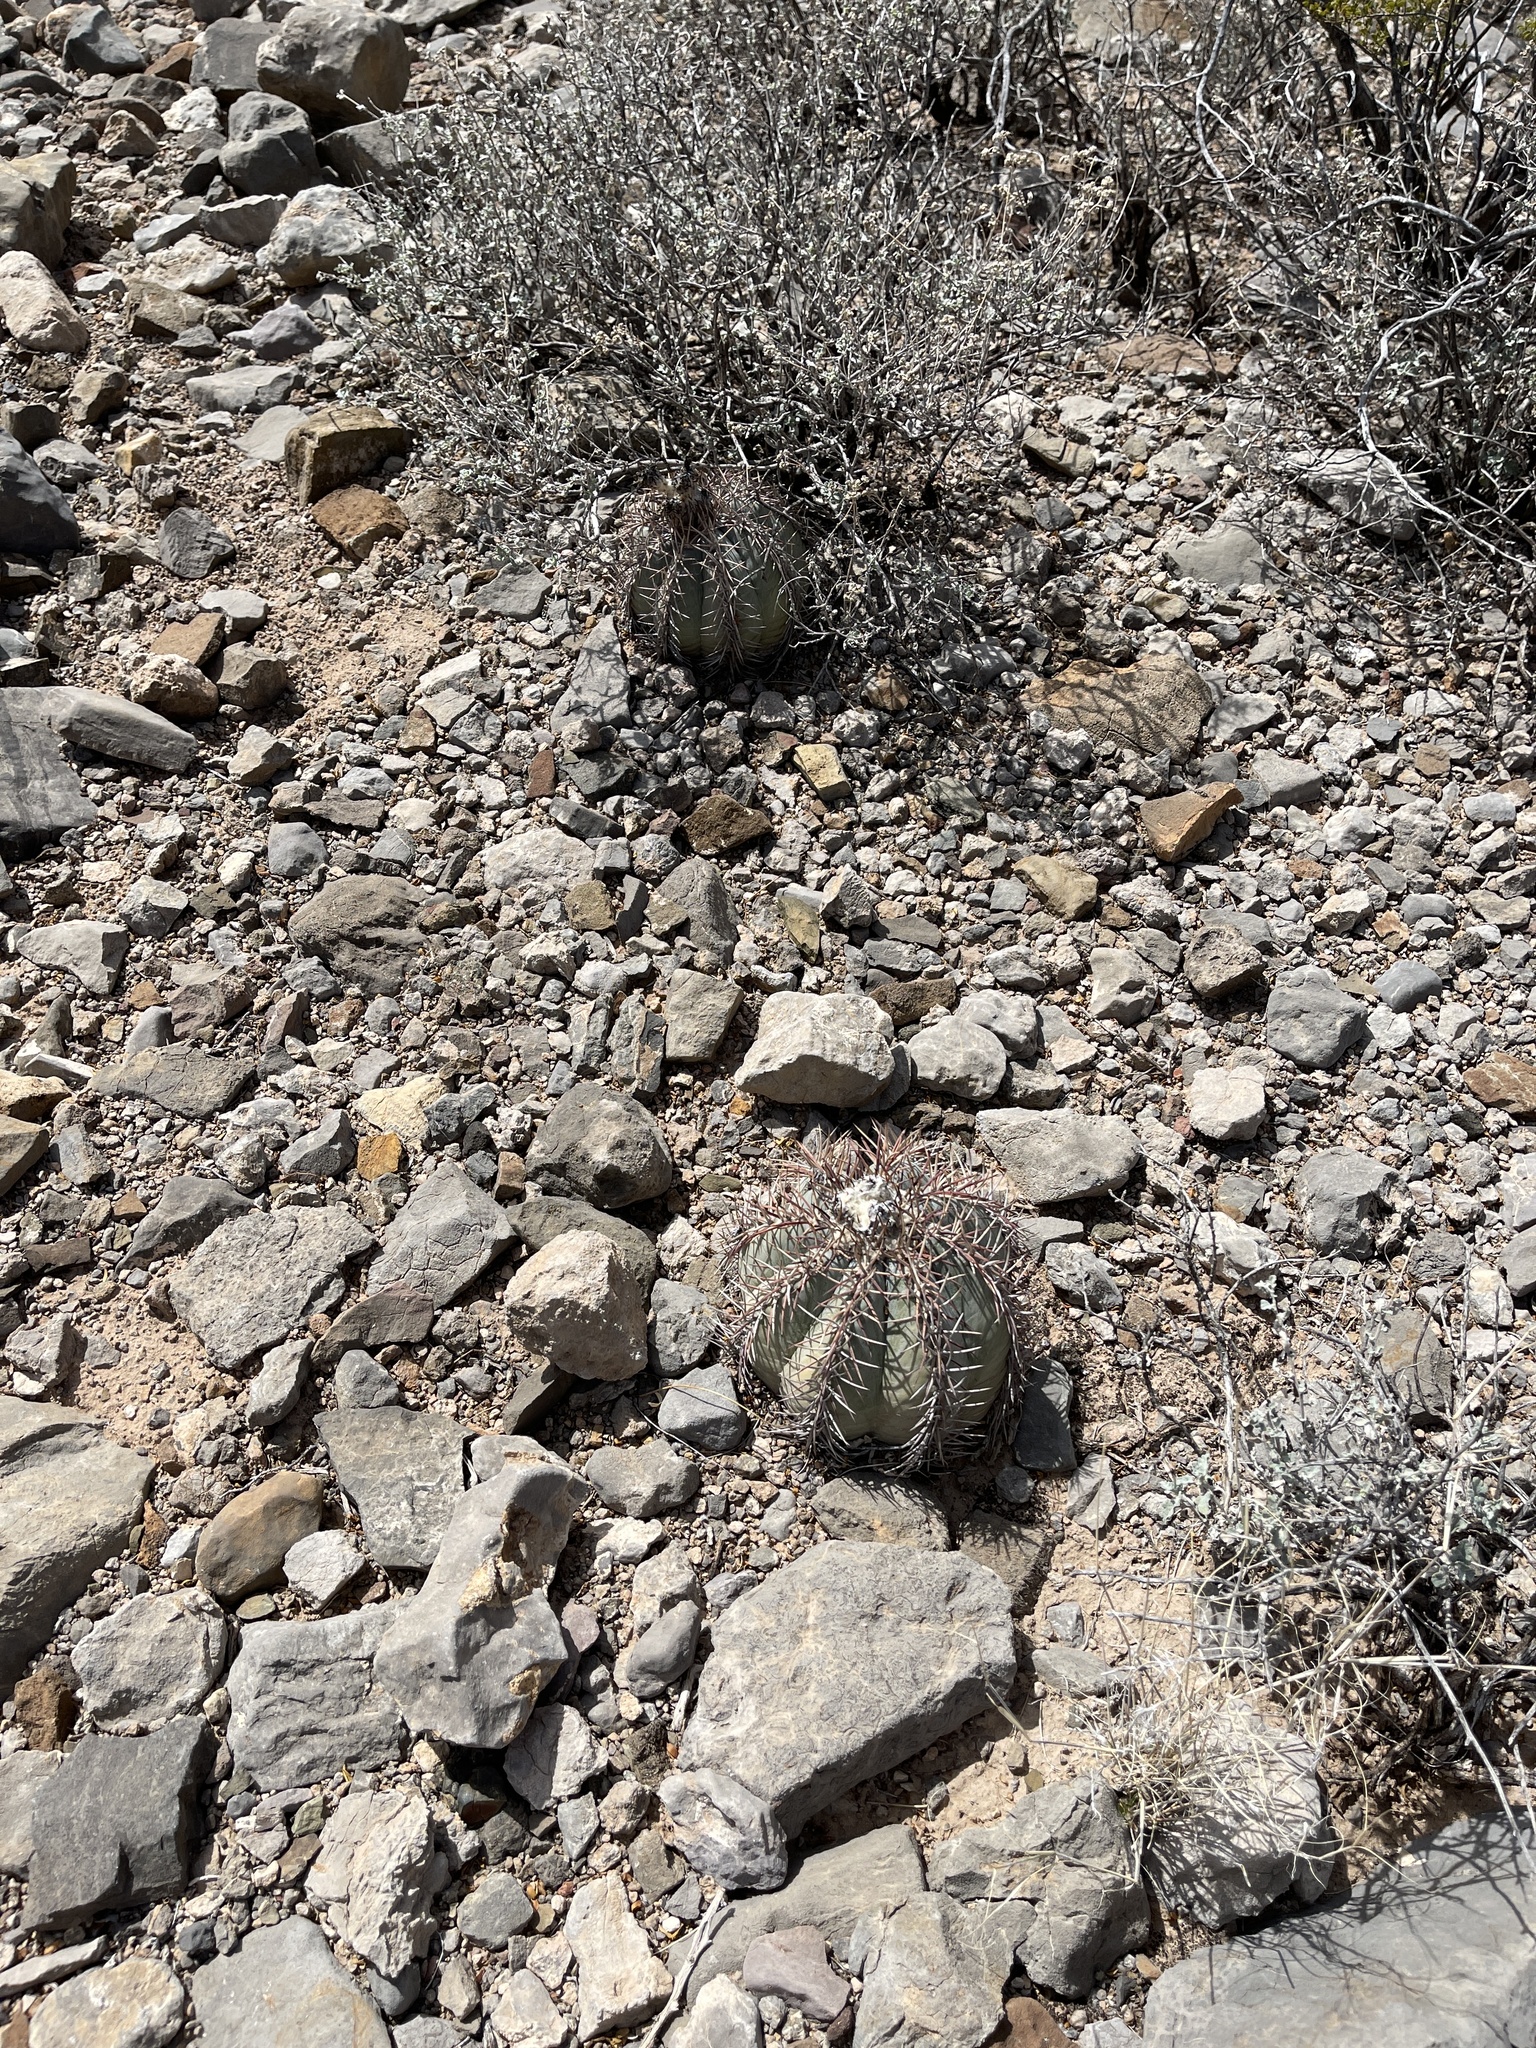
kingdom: Plantae
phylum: Tracheophyta
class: Magnoliopsida
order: Caryophyllales
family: Cactaceae
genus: Echinocactus
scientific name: Echinocactus horizonthalonius
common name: Devilshead
